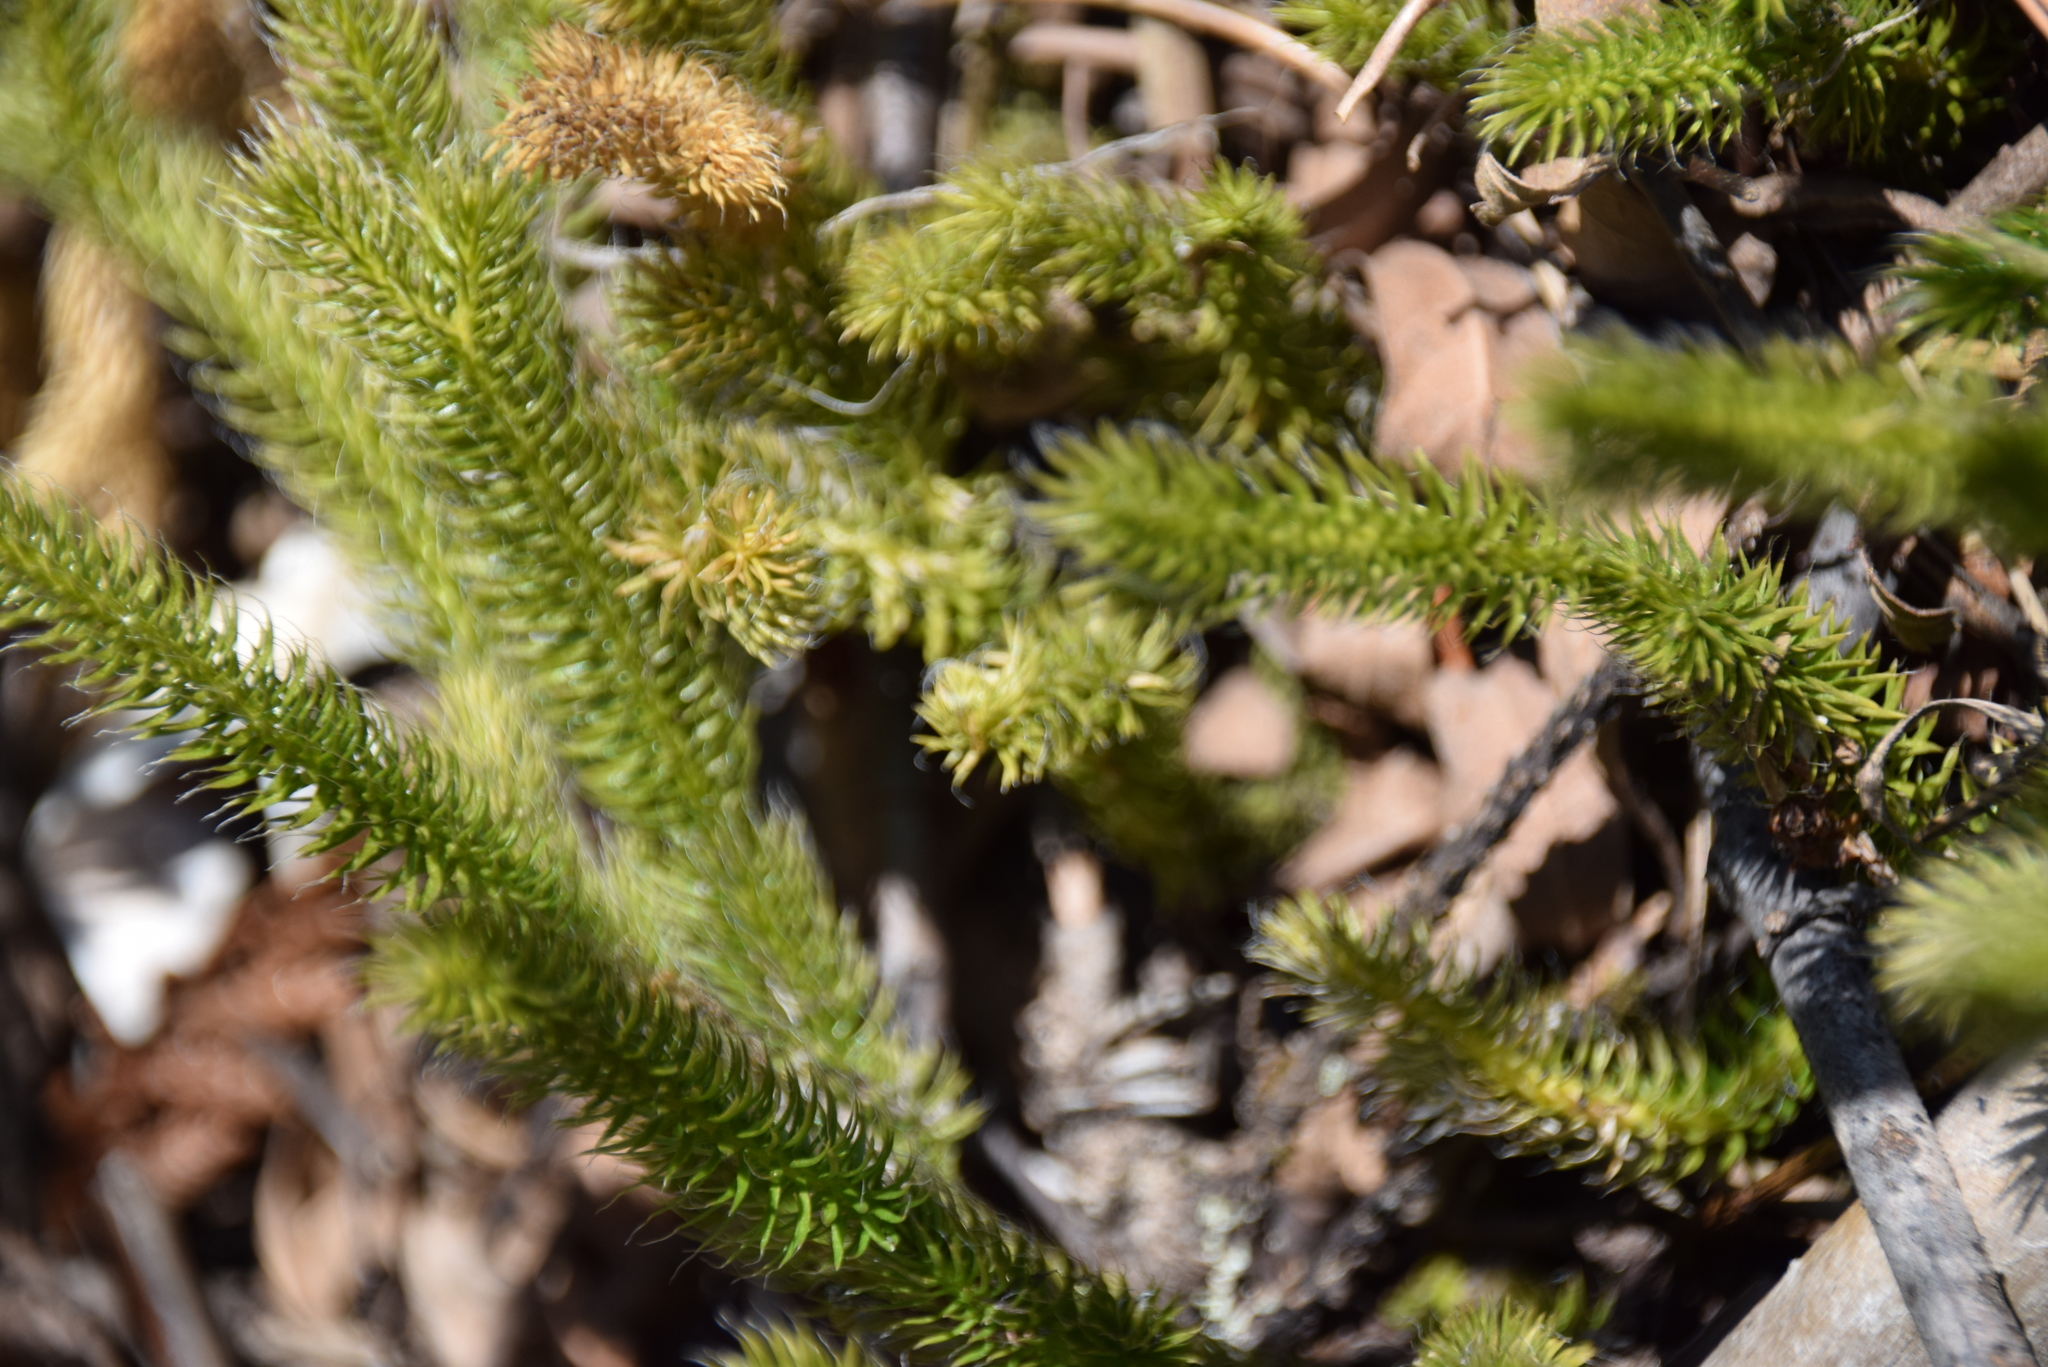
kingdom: Plantae
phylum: Tracheophyta
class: Lycopodiopsida
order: Lycopodiales
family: Lycopodiaceae
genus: Lycopodium
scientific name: Lycopodium clavatum
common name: Stag's-horn clubmoss
